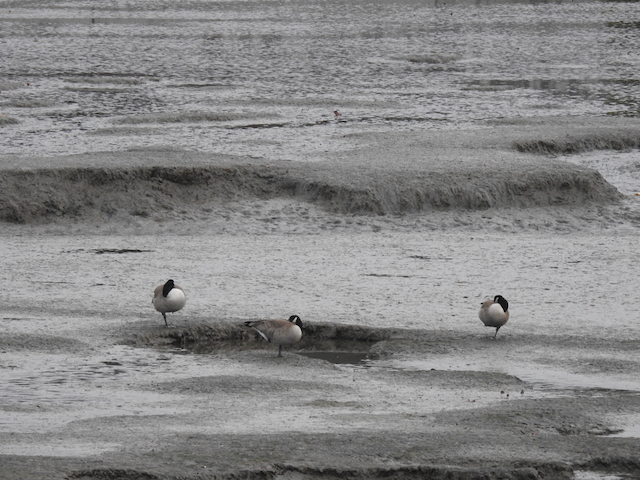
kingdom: Animalia
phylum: Chordata
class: Aves
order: Anseriformes
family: Anatidae
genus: Branta
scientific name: Branta canadensis
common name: Canada goose
